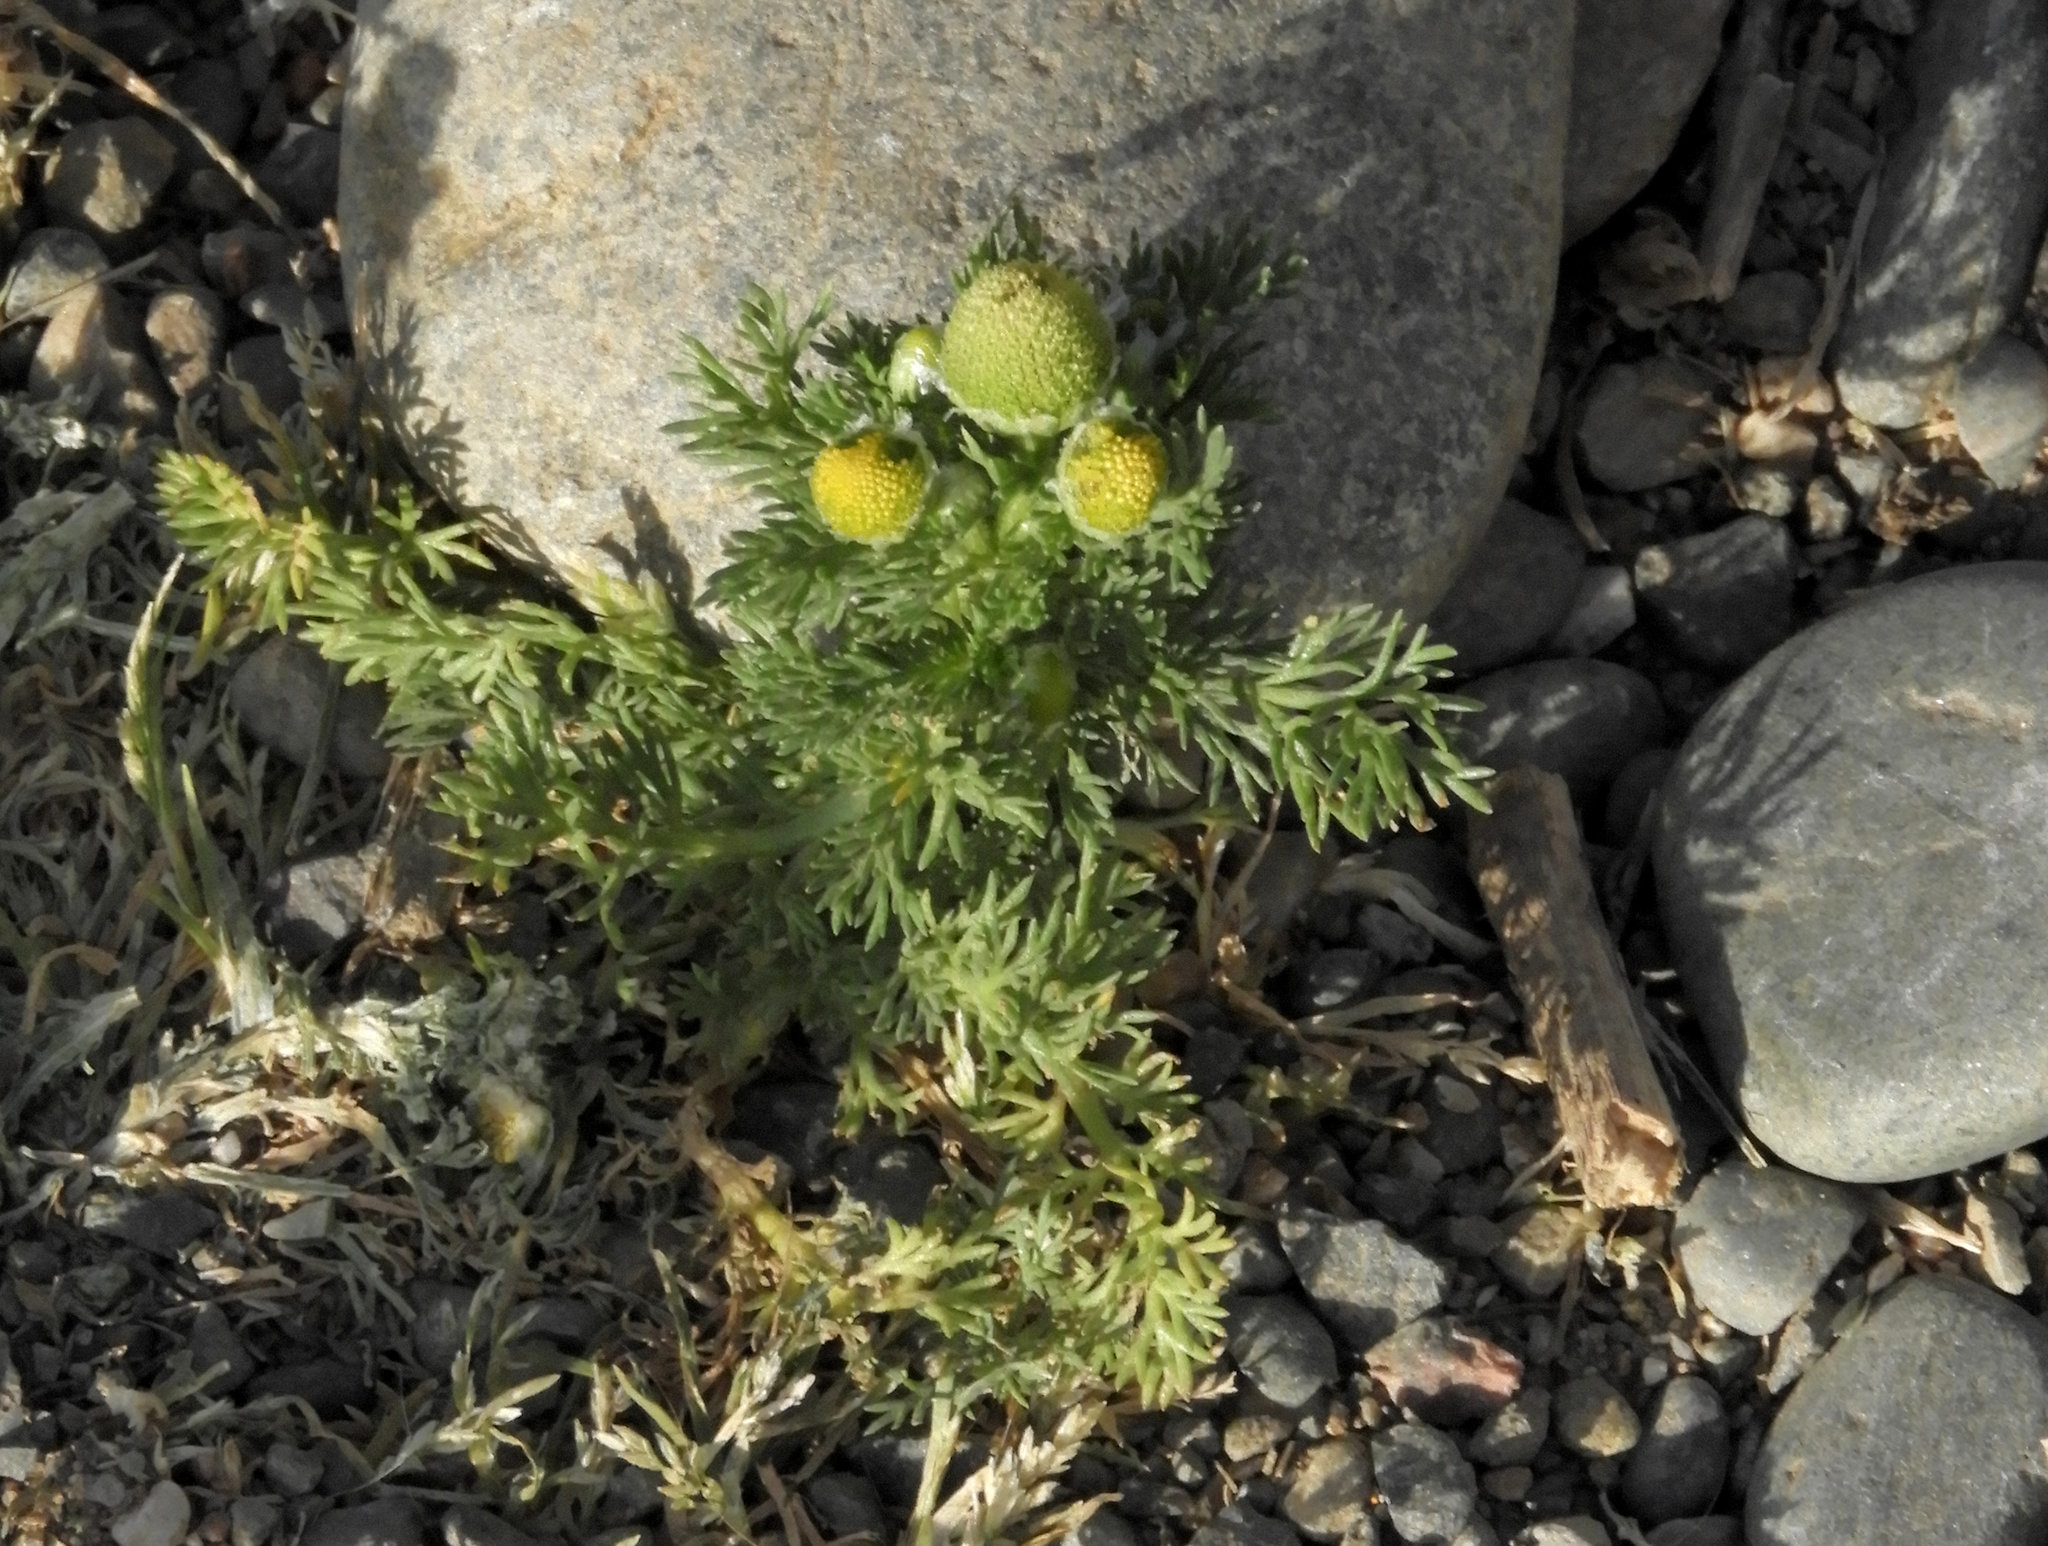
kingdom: Plantae
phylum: Tracheophyta
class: Magnoliopsida
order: Asterales
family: Asteraceae
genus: Matricaria
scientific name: Matricaria discoidea
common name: Disc mayweed
